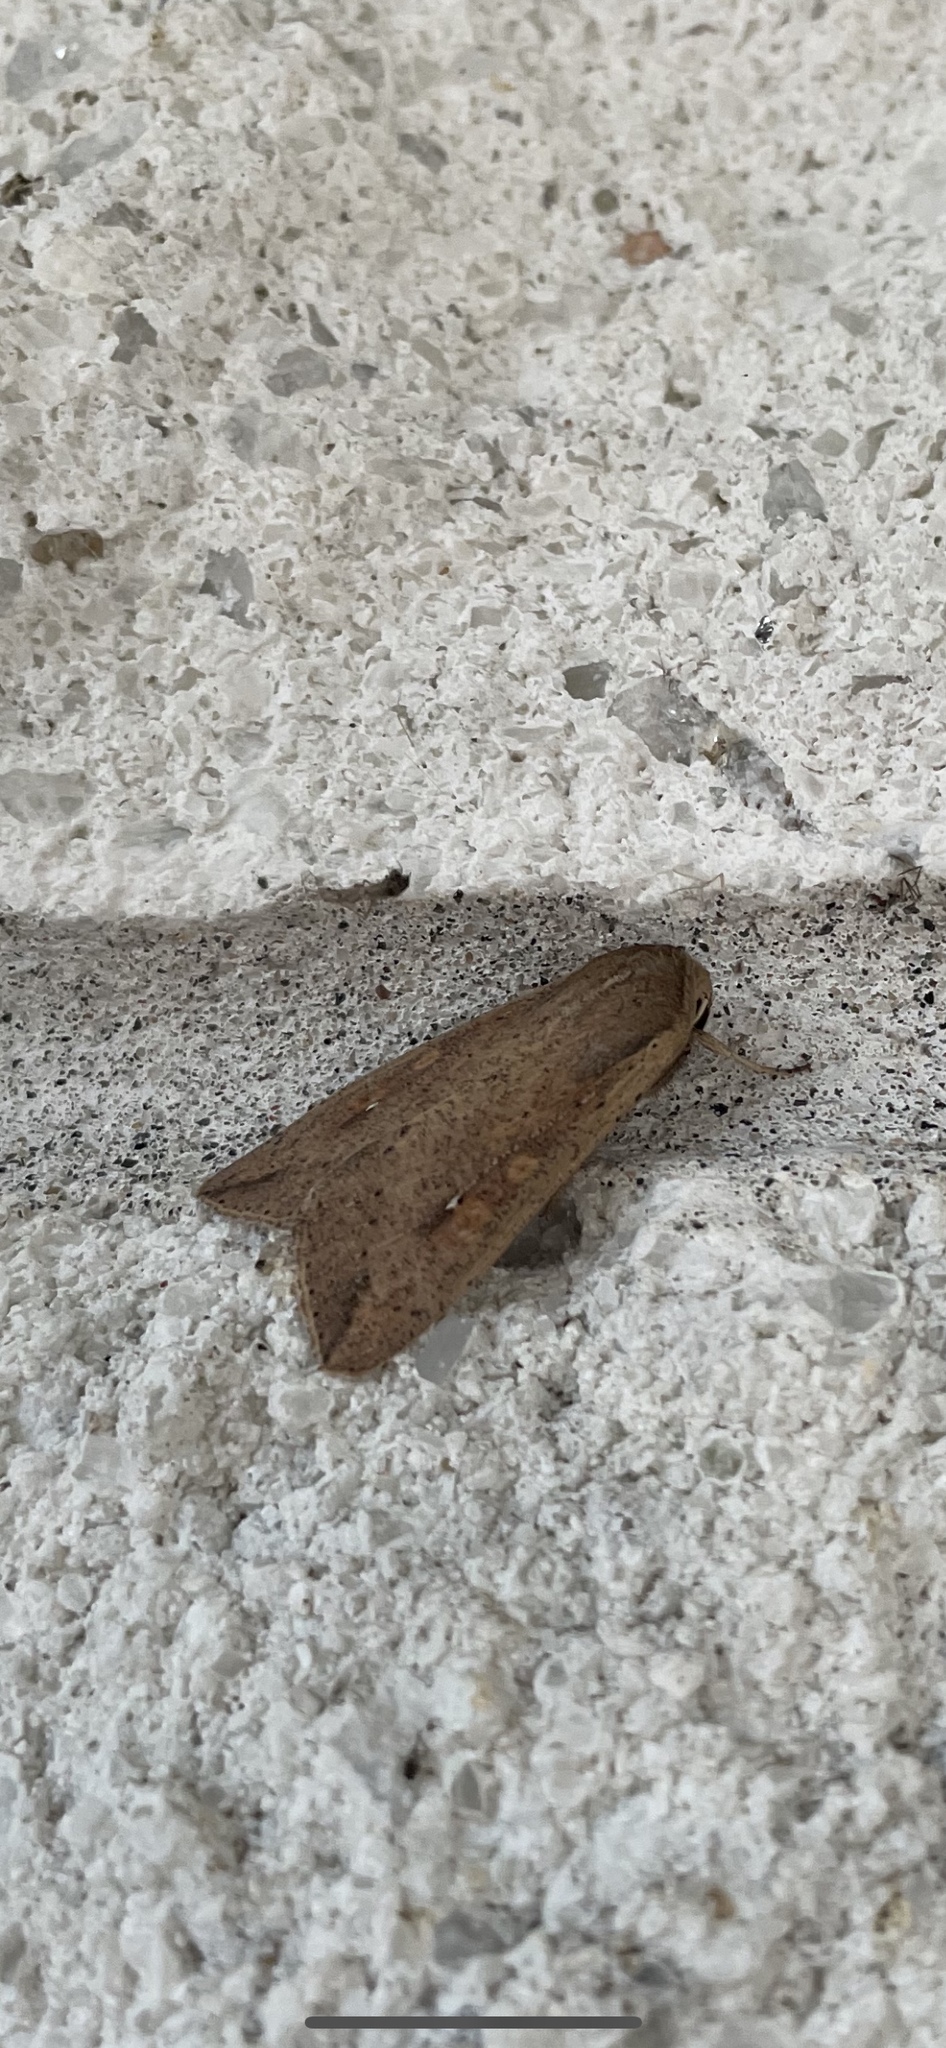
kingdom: Animalia
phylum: Arthropoda
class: Insecta
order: Lepidoptera
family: Noctuidae
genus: Mythimna
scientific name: Mythimna unipuncta
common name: White-speck
